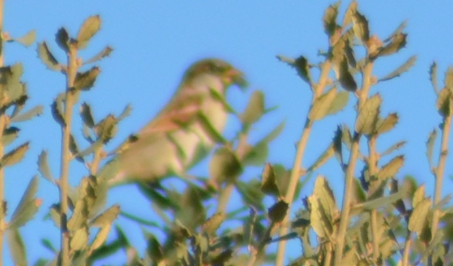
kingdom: Animalia
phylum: Chordata
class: Aves
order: Passeriformes
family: Passeridae
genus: Passer
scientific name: Passer domesticus
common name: House sparrow
